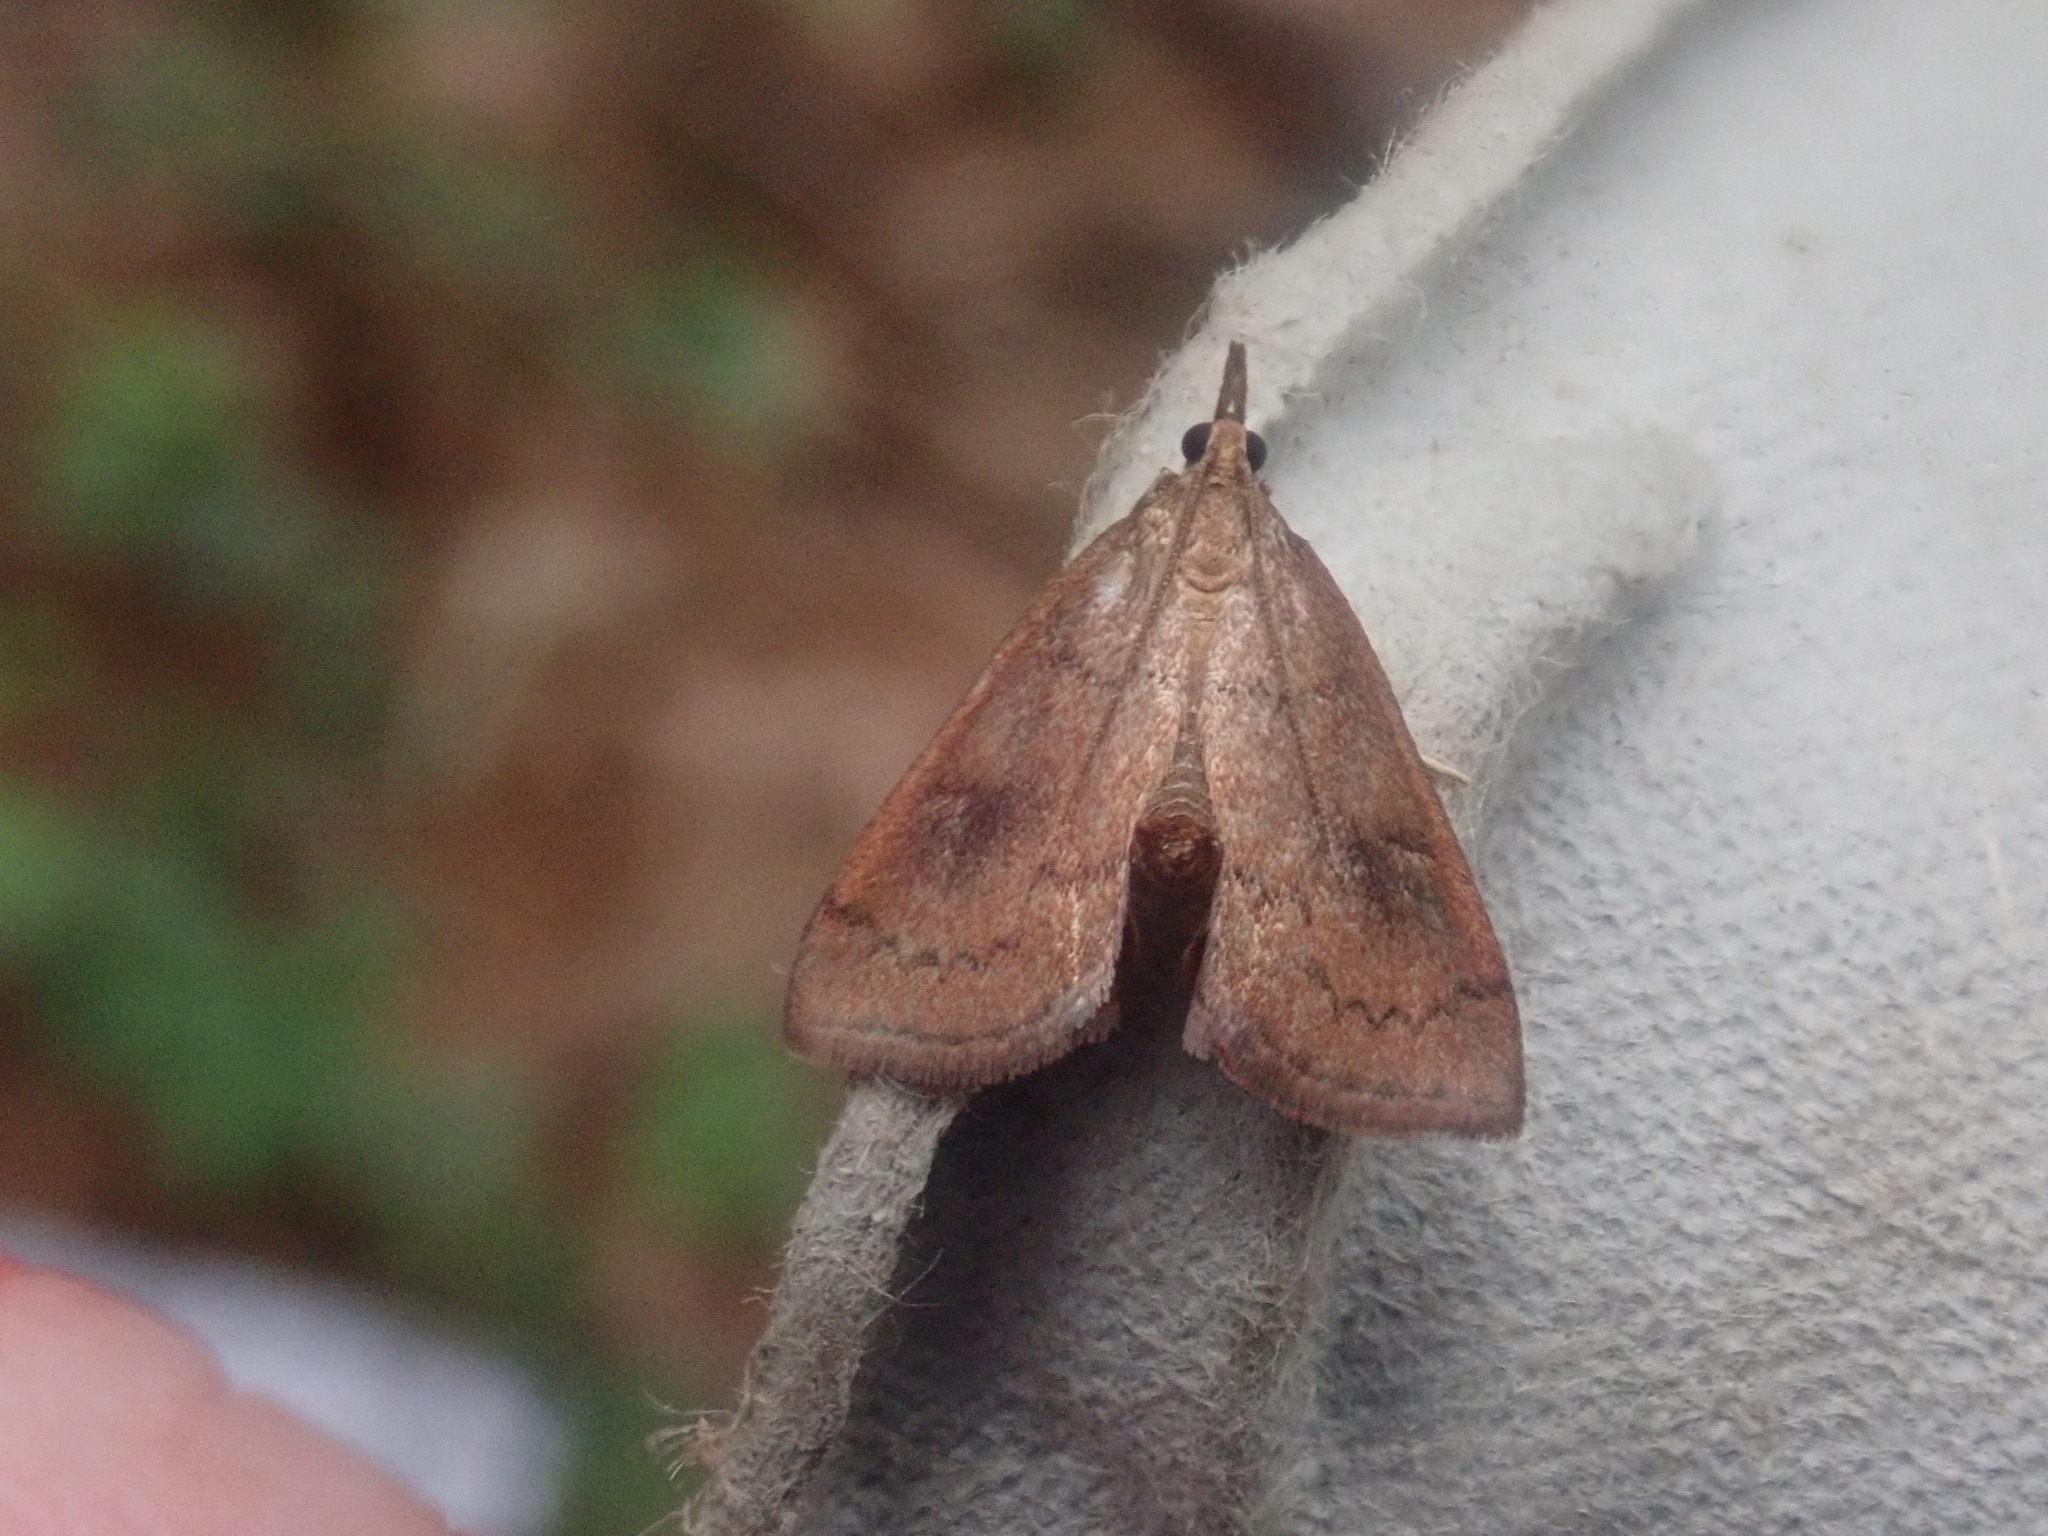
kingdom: Animalia
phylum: Arthropoda
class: Insecta
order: Lepidoptera
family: Crambidae
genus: Fumibotys
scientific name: Fumibotys fumalis
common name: Mint root borer moth
